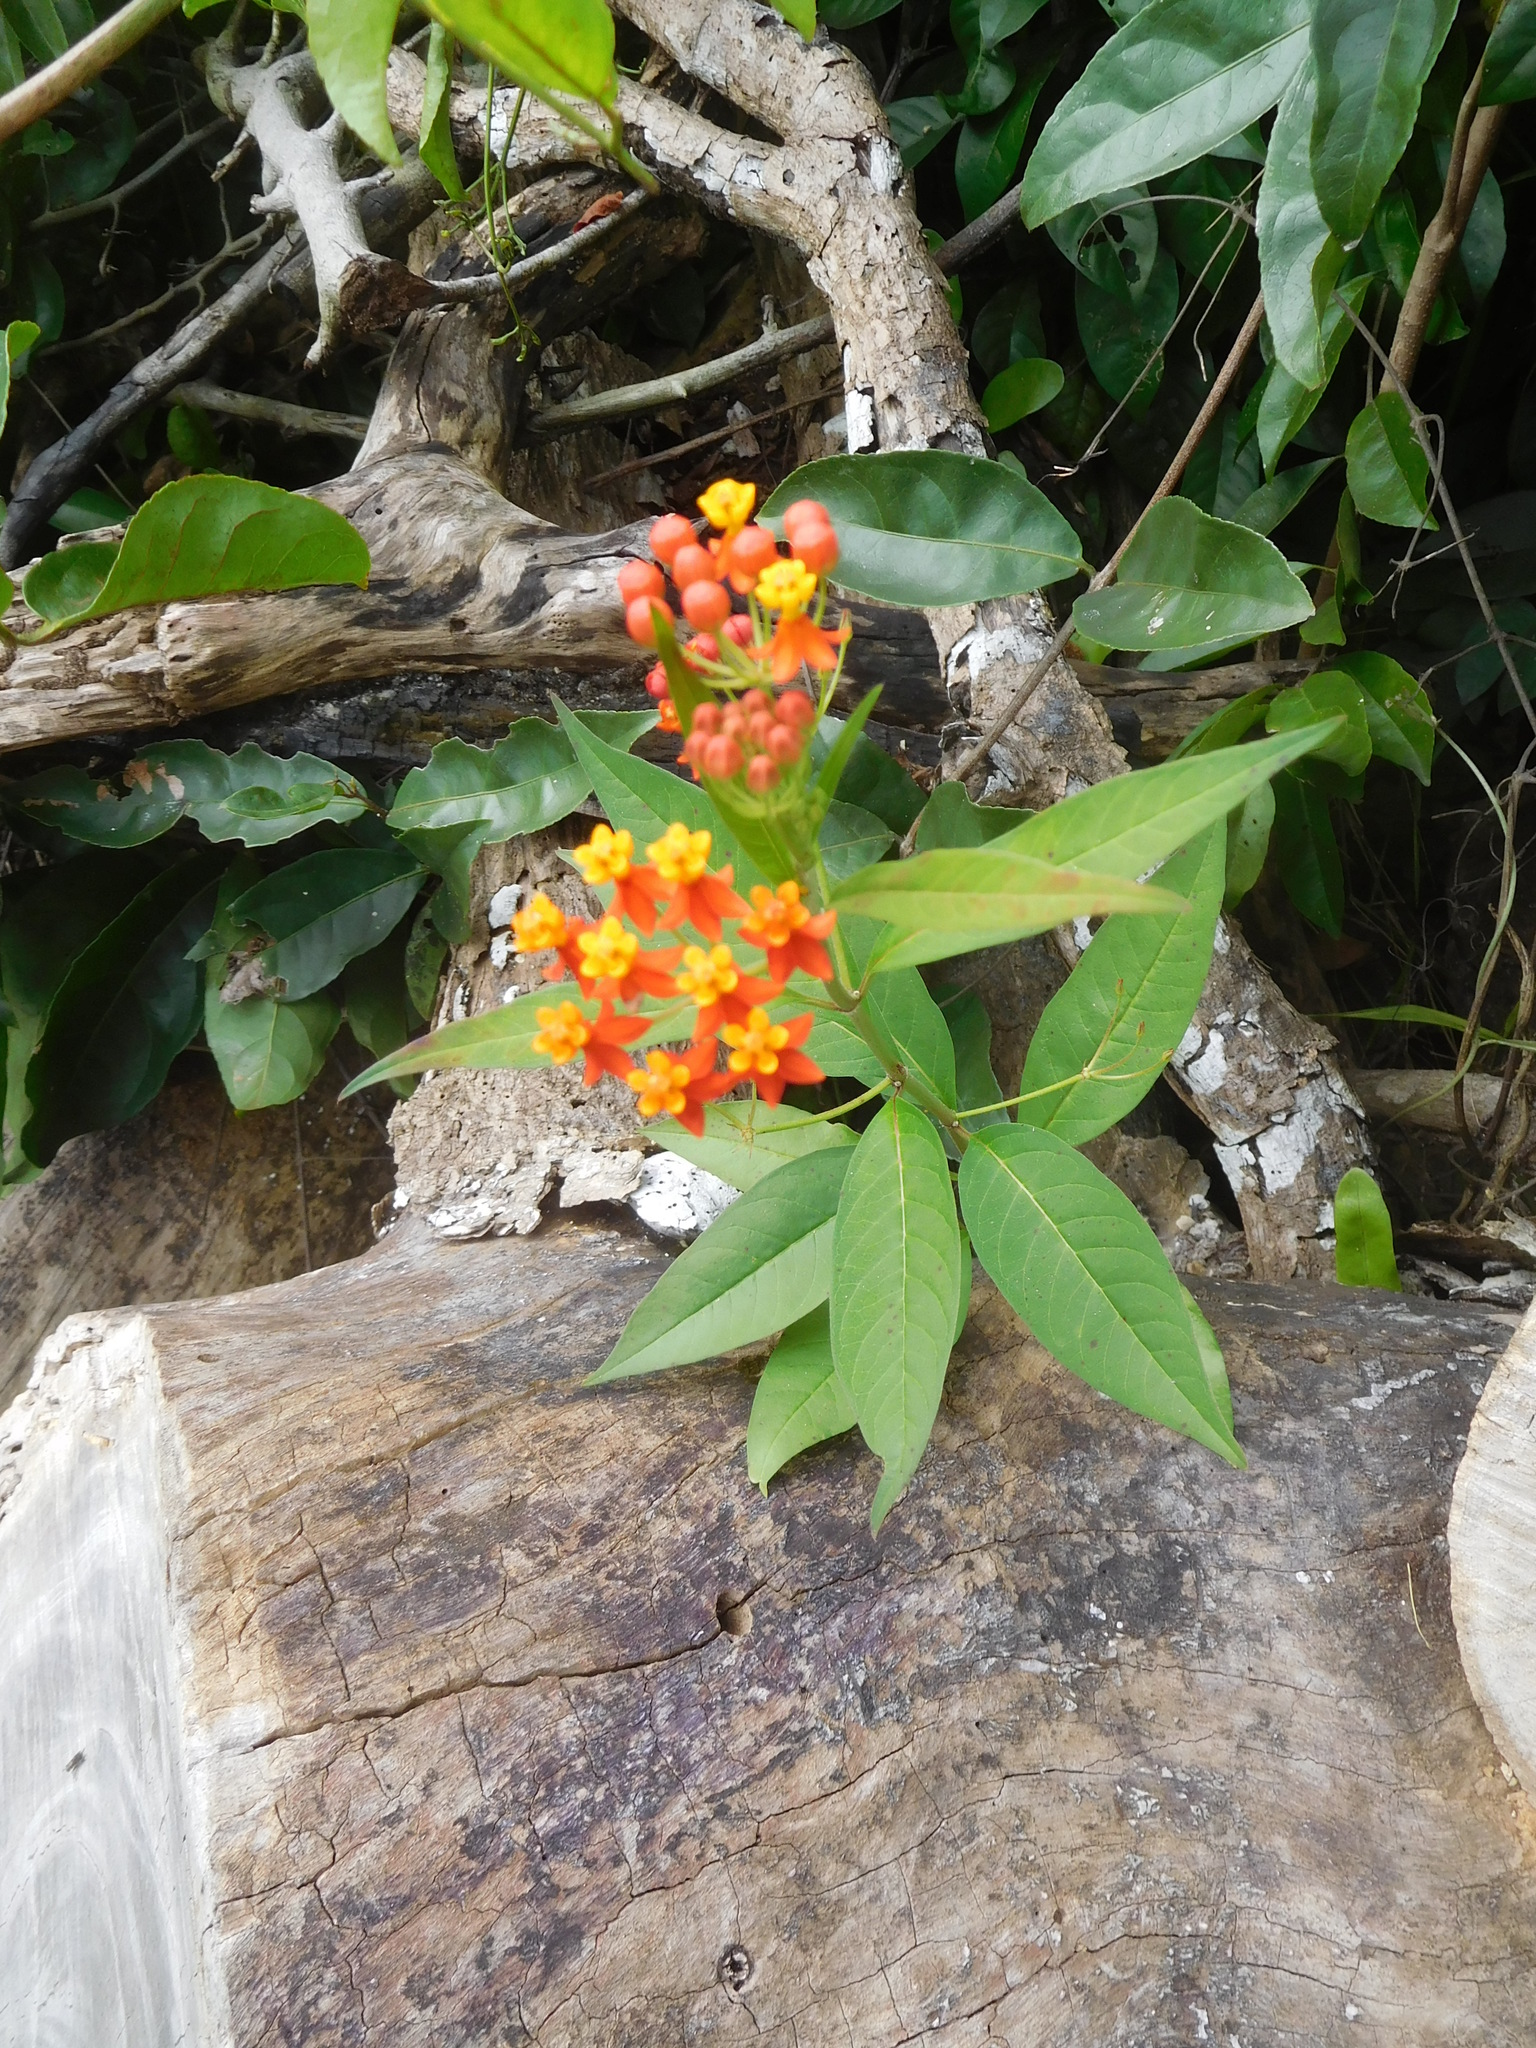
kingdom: Plantae
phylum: Tracheophyta
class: Magnoliopsida
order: Gentianales
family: Apocynaceae
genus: Asclepias
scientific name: Asclepias curassavica
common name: Bloodflower
